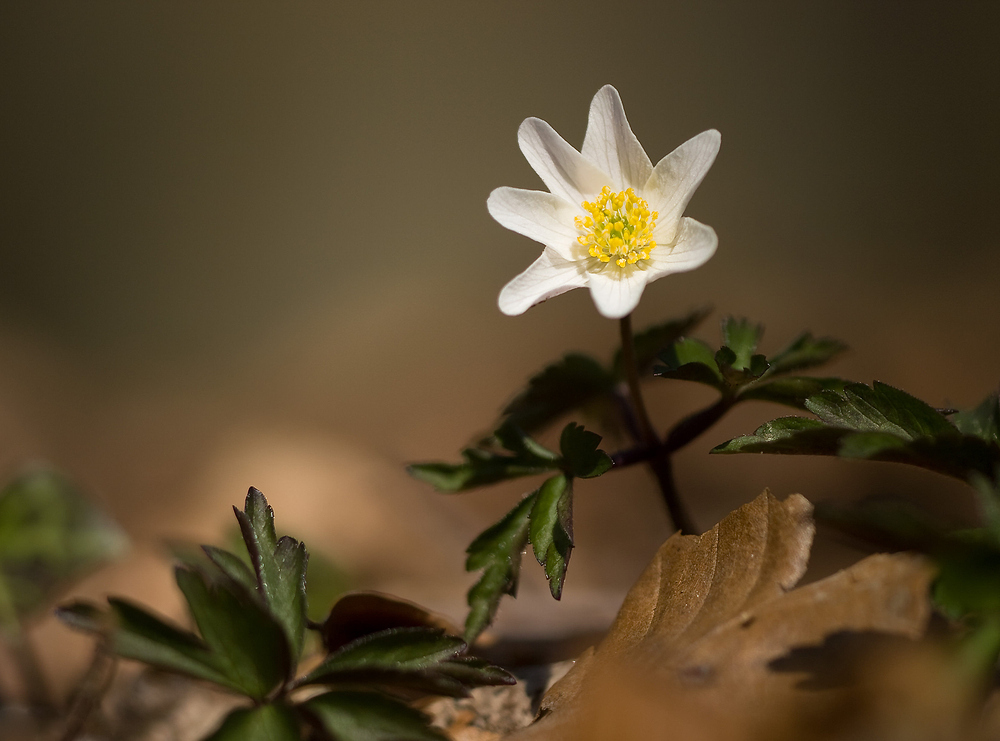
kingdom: Plantae
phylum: Tracheophyta
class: Magnoliopsida
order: Ranunculales
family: Ranunculaceae
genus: Anemone
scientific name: Anemone nemorosa
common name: Wood anemone
